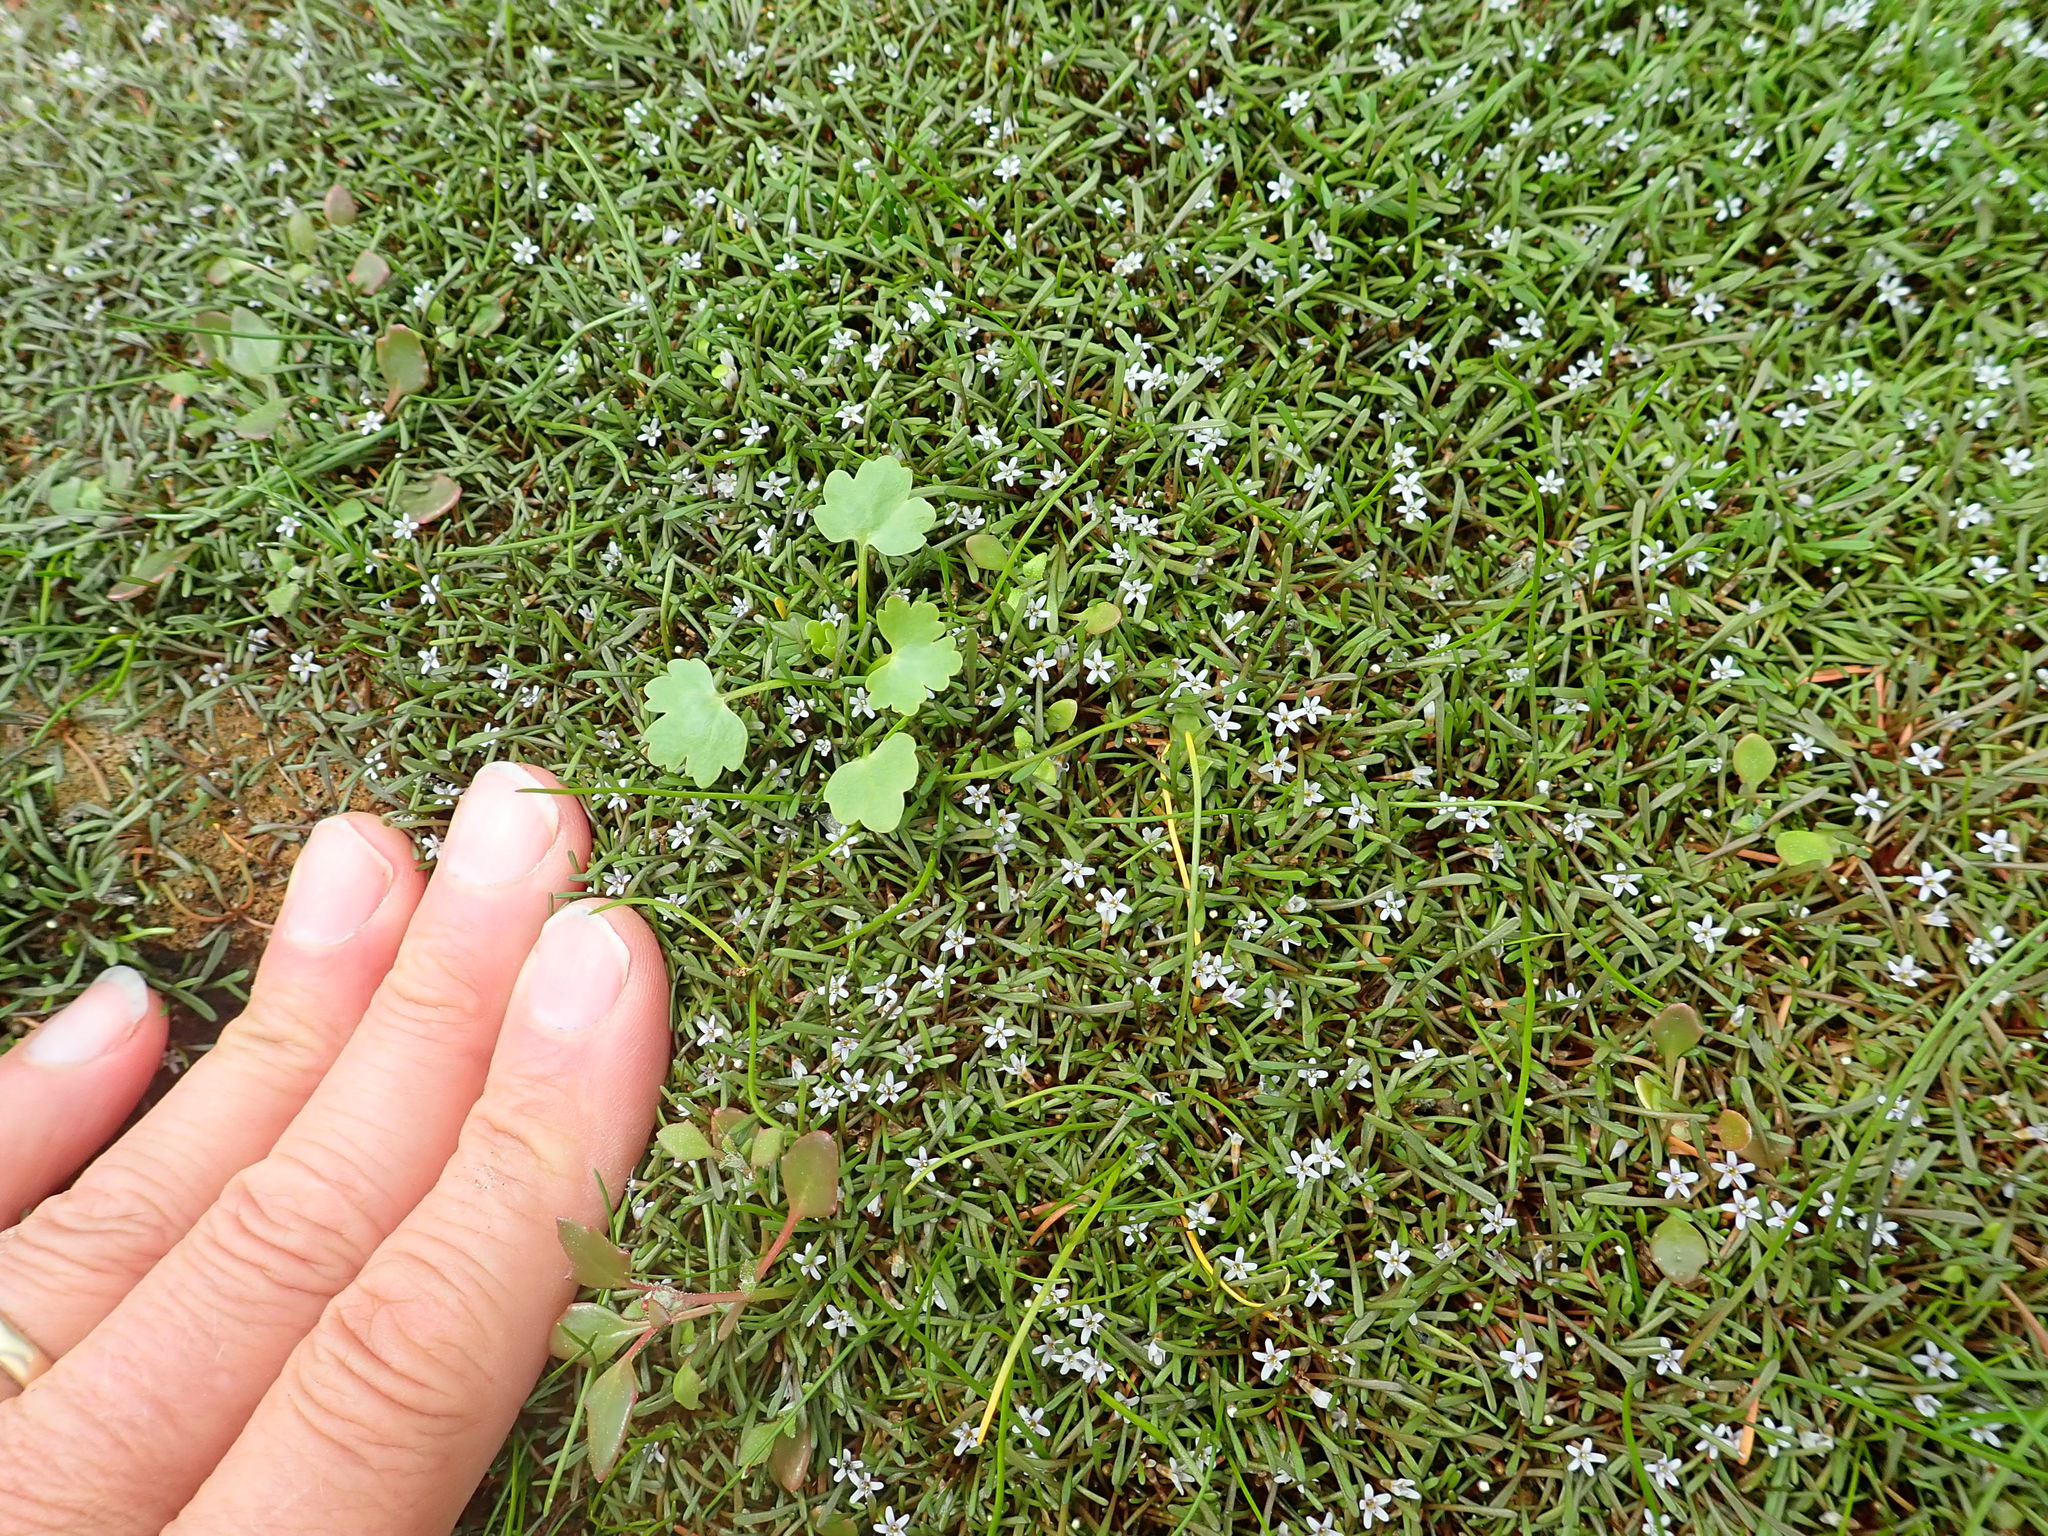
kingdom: Plantae
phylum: Tracheophyta
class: Magnoliopsida
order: Lamiales
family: Scrophulariaceae
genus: Limosella
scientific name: Limosella australis
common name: Welsh mudwort
